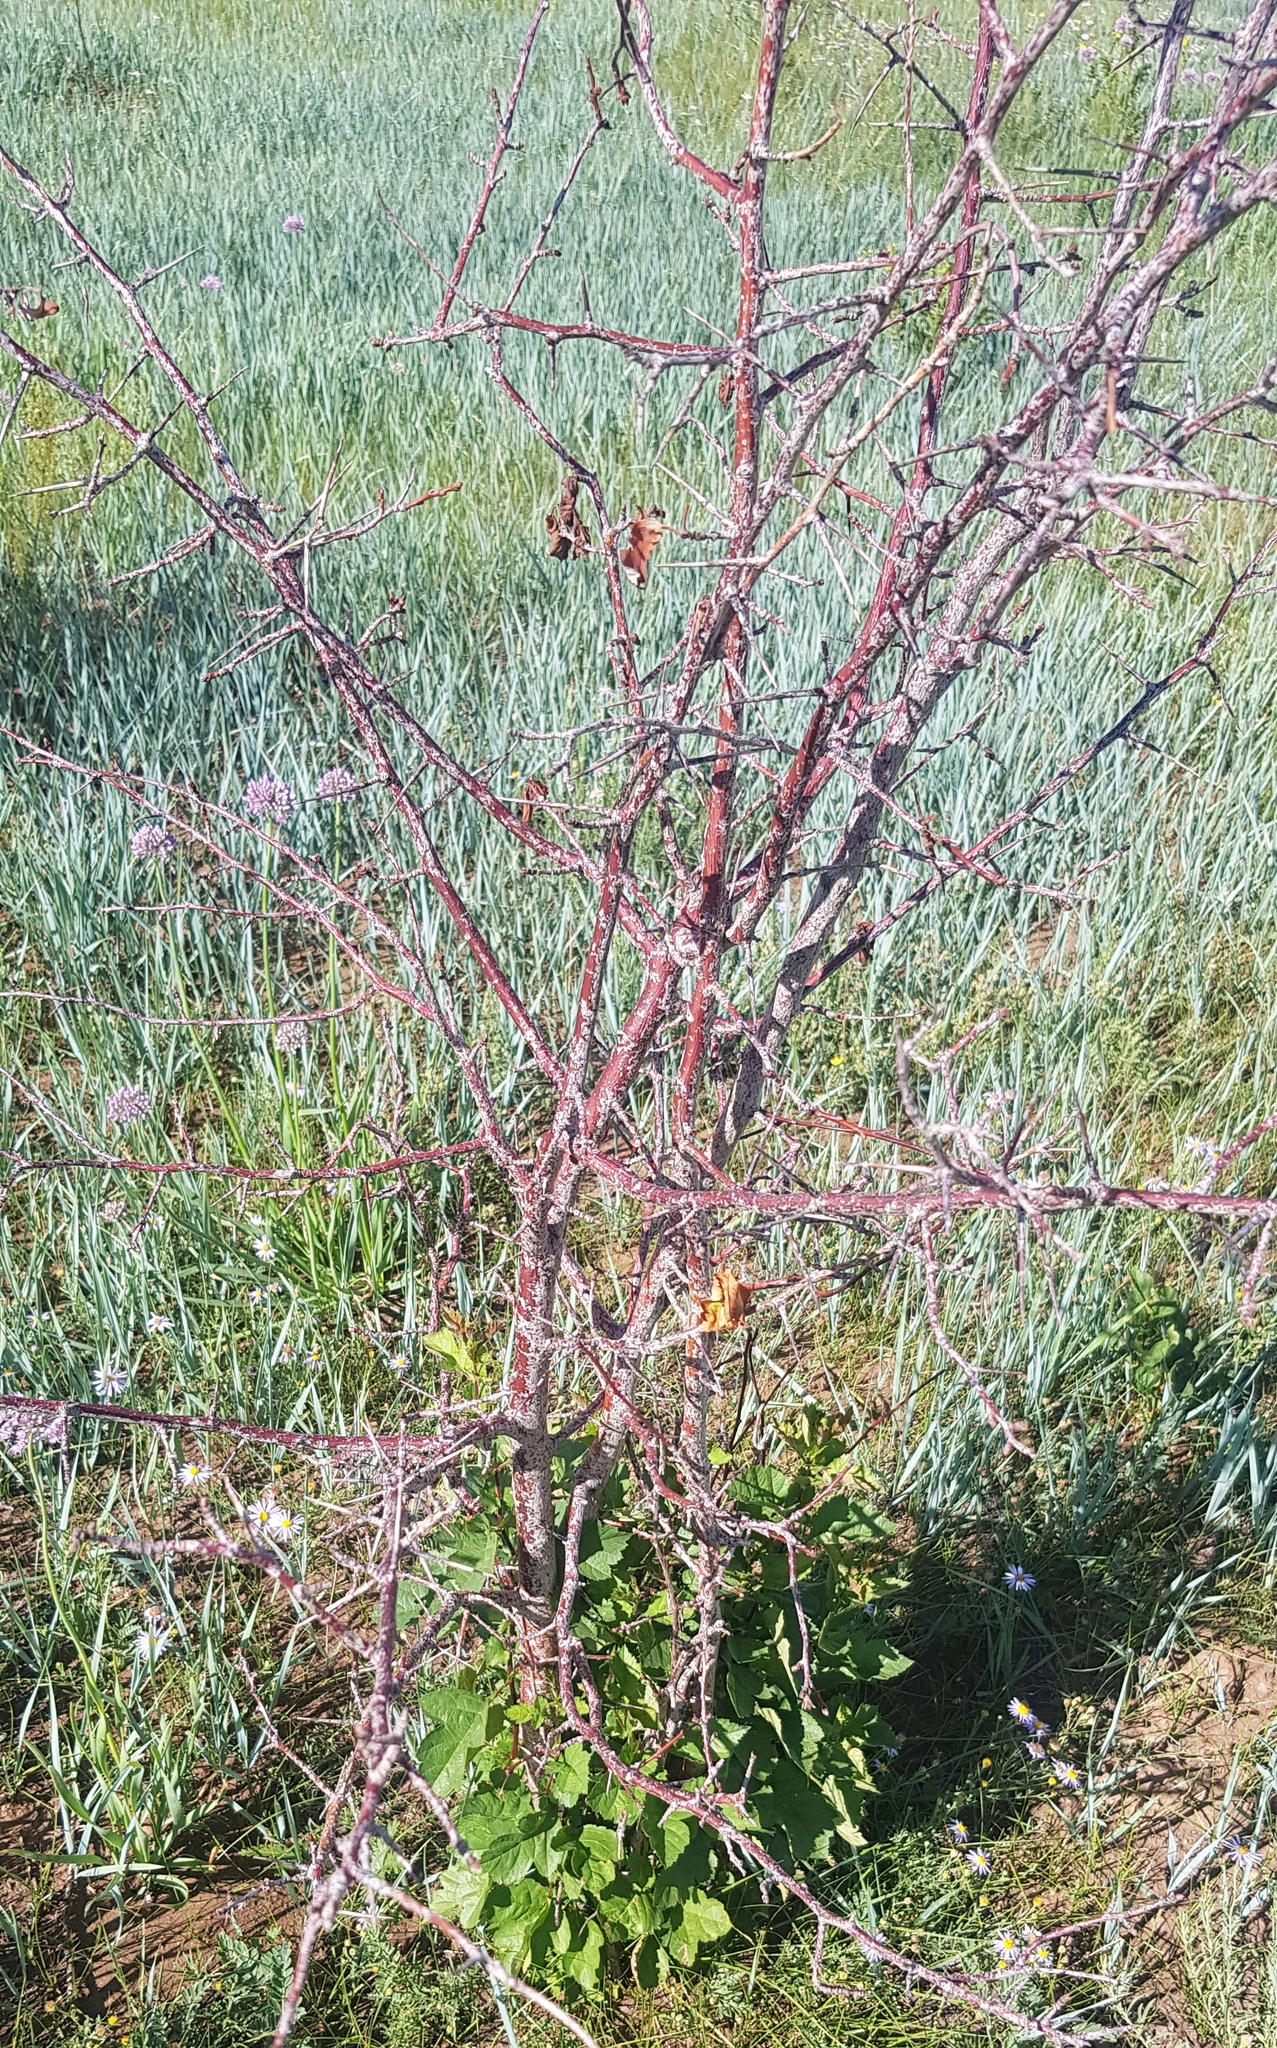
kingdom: Plantae
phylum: Tracheophyta
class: Magnoliopsida
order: Rosales
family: Rosaceae
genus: Crataegus
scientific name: Crataegus sanguinea
